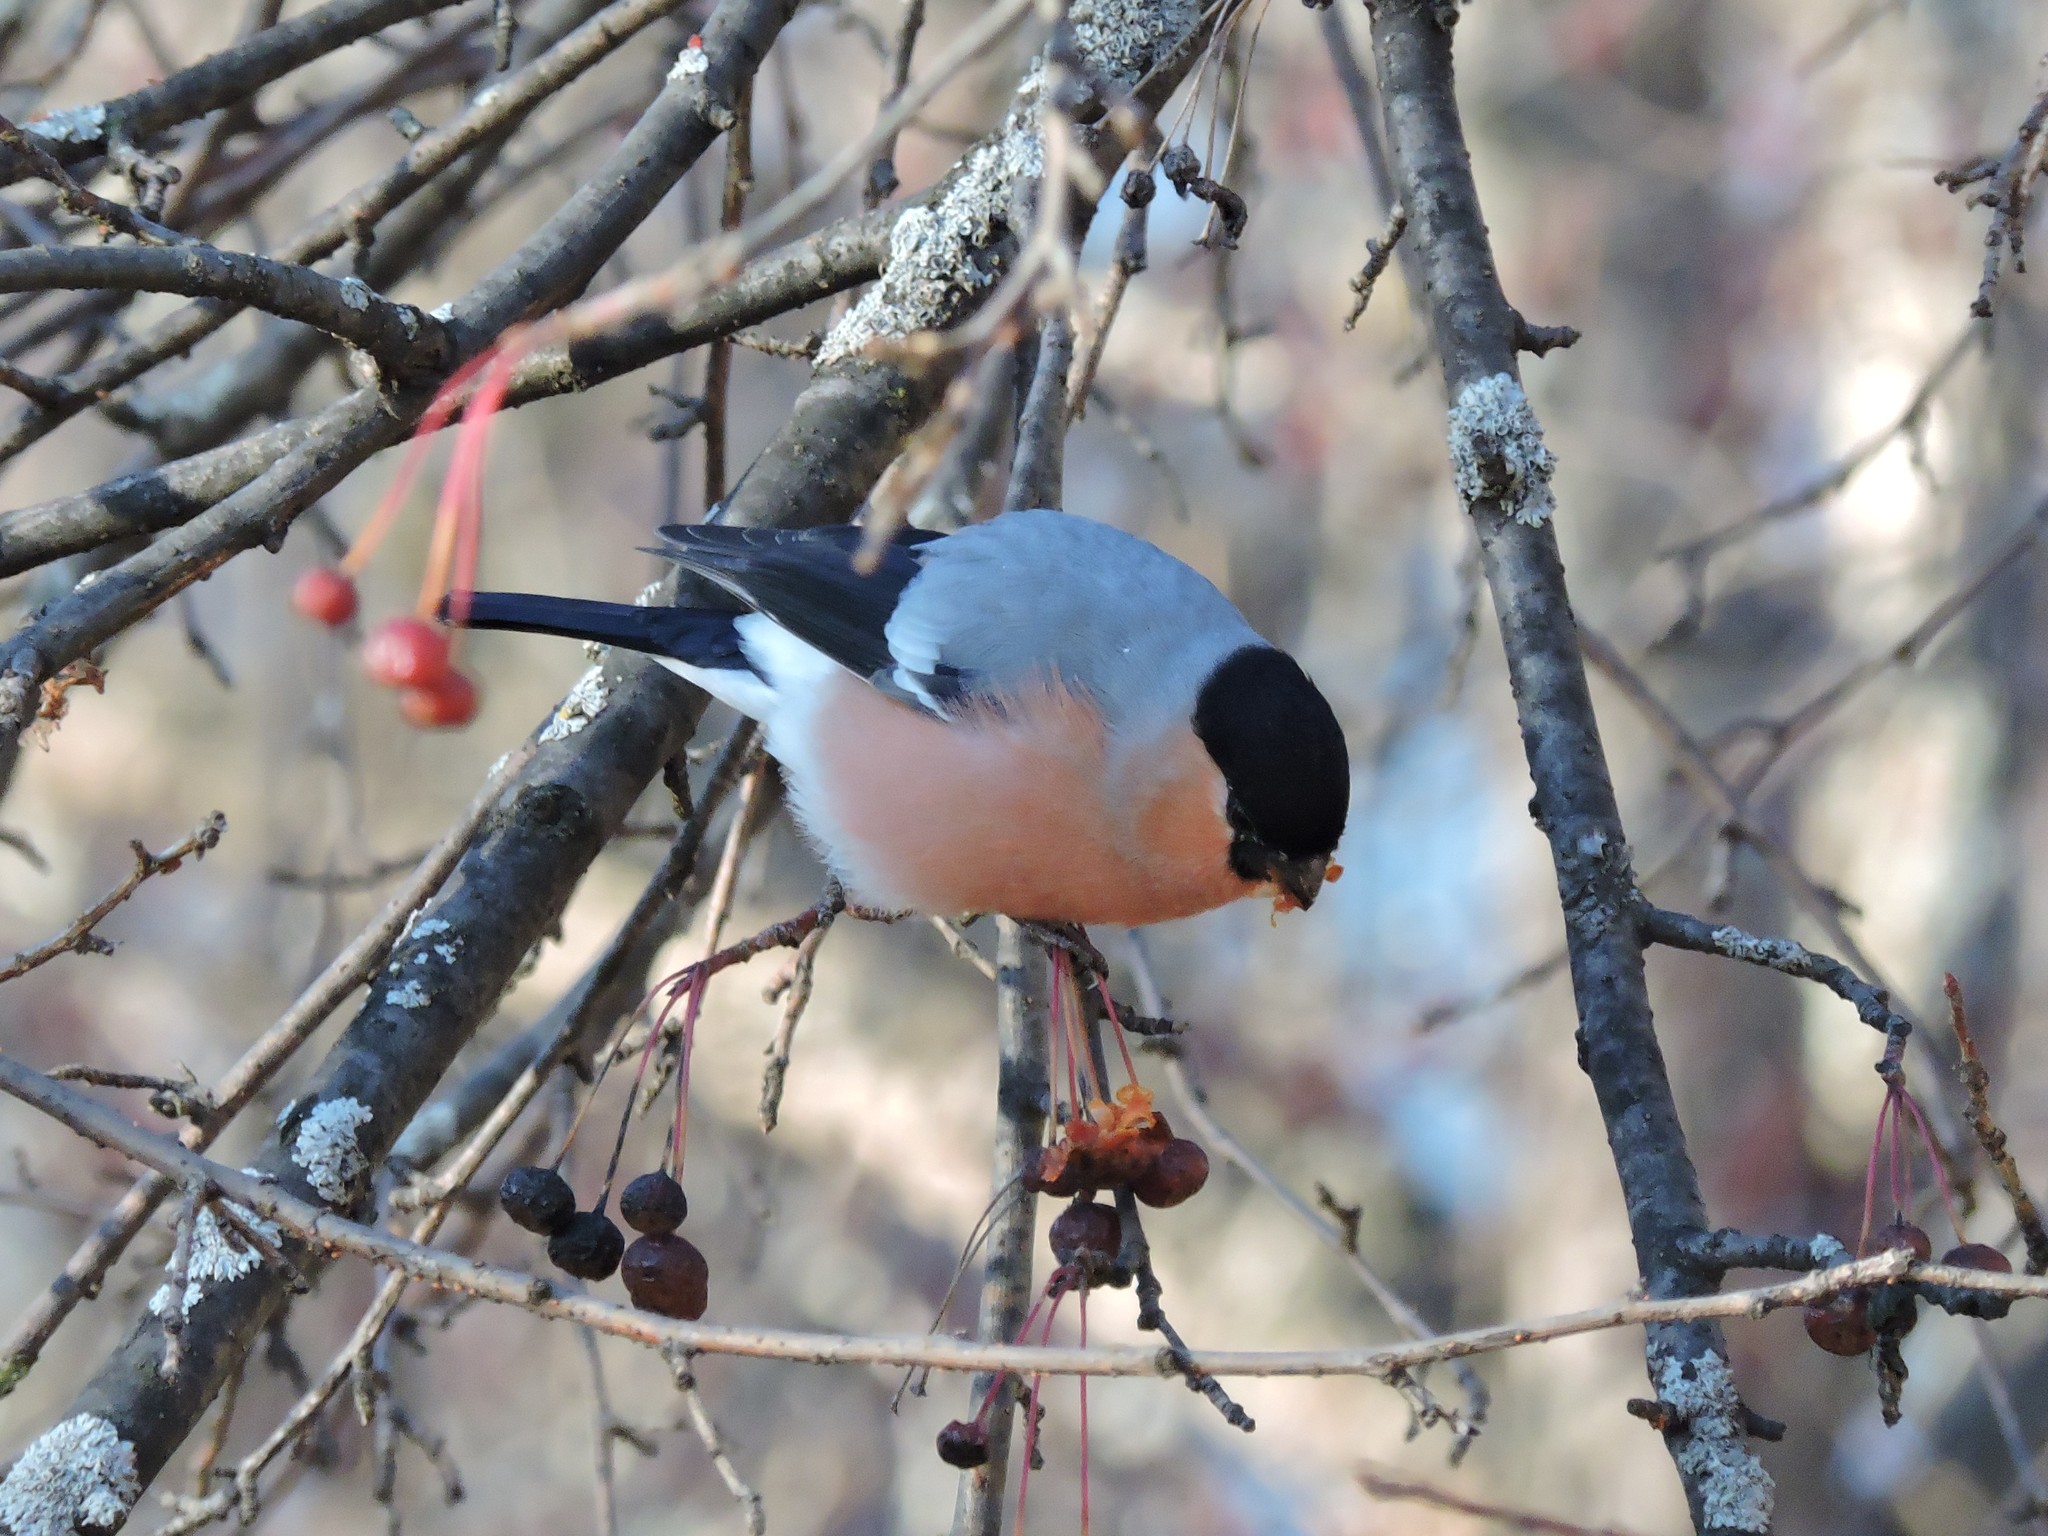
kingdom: Animalia
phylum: Chordata
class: Aves
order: Passeriformes
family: Fringillidae
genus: Pyrrhula
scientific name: Pyrrhula pyrrhula
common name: Eurasian bullfinch
